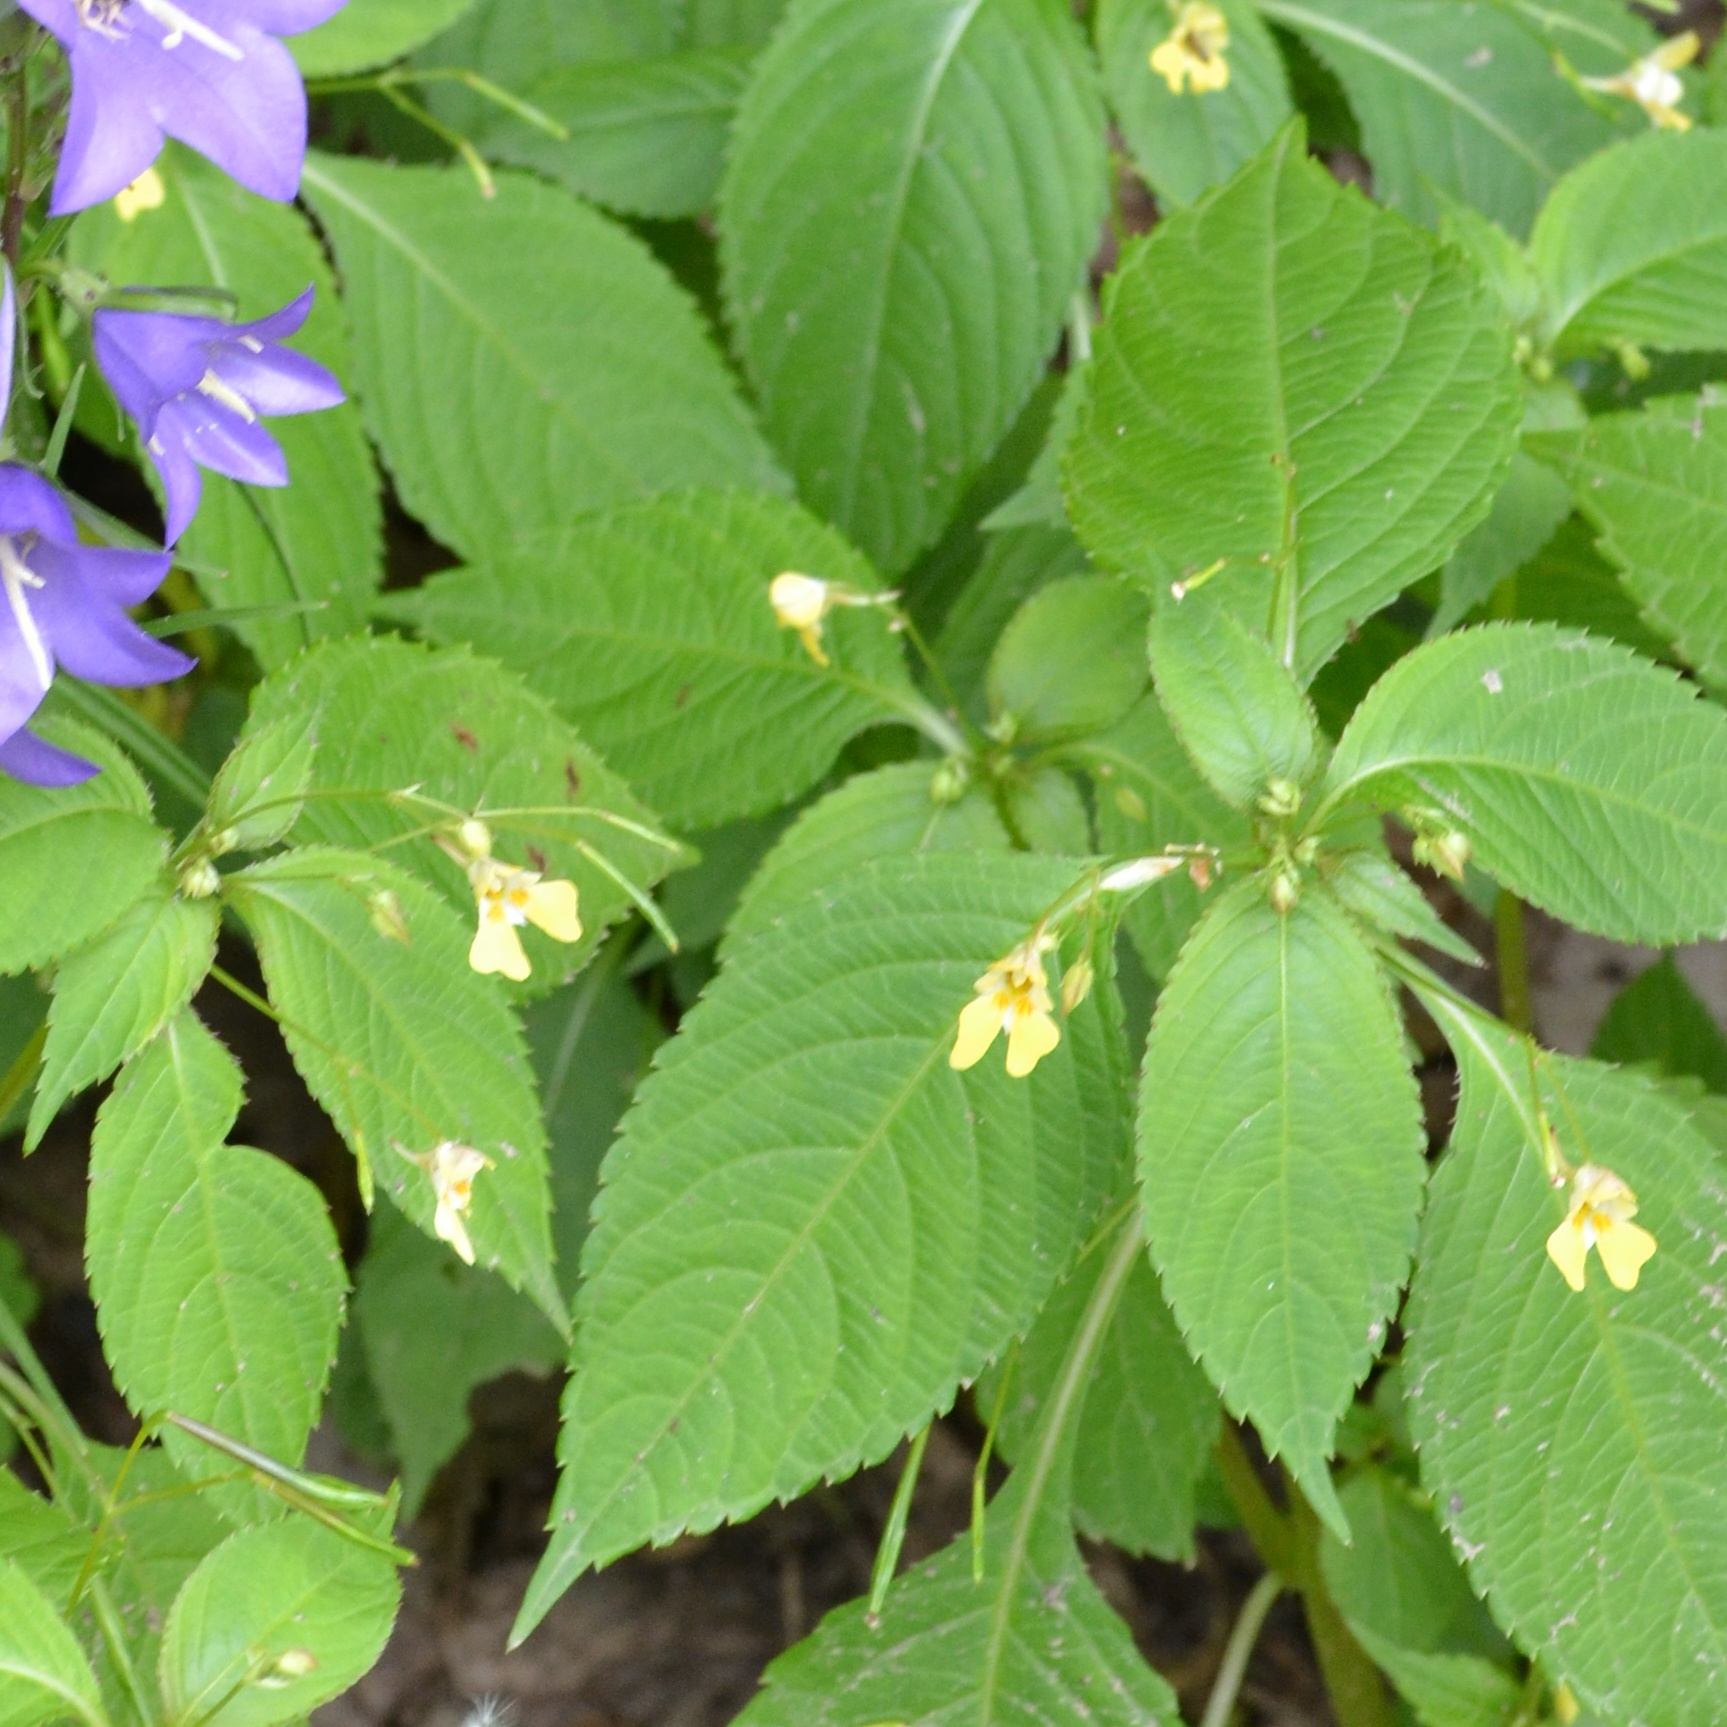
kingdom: Plantae
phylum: Tracheophyta
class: Magnoliopsida
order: Ericales
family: Balsaminaceae
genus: Impatiens
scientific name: Impatiens parviflora
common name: Small balsam
